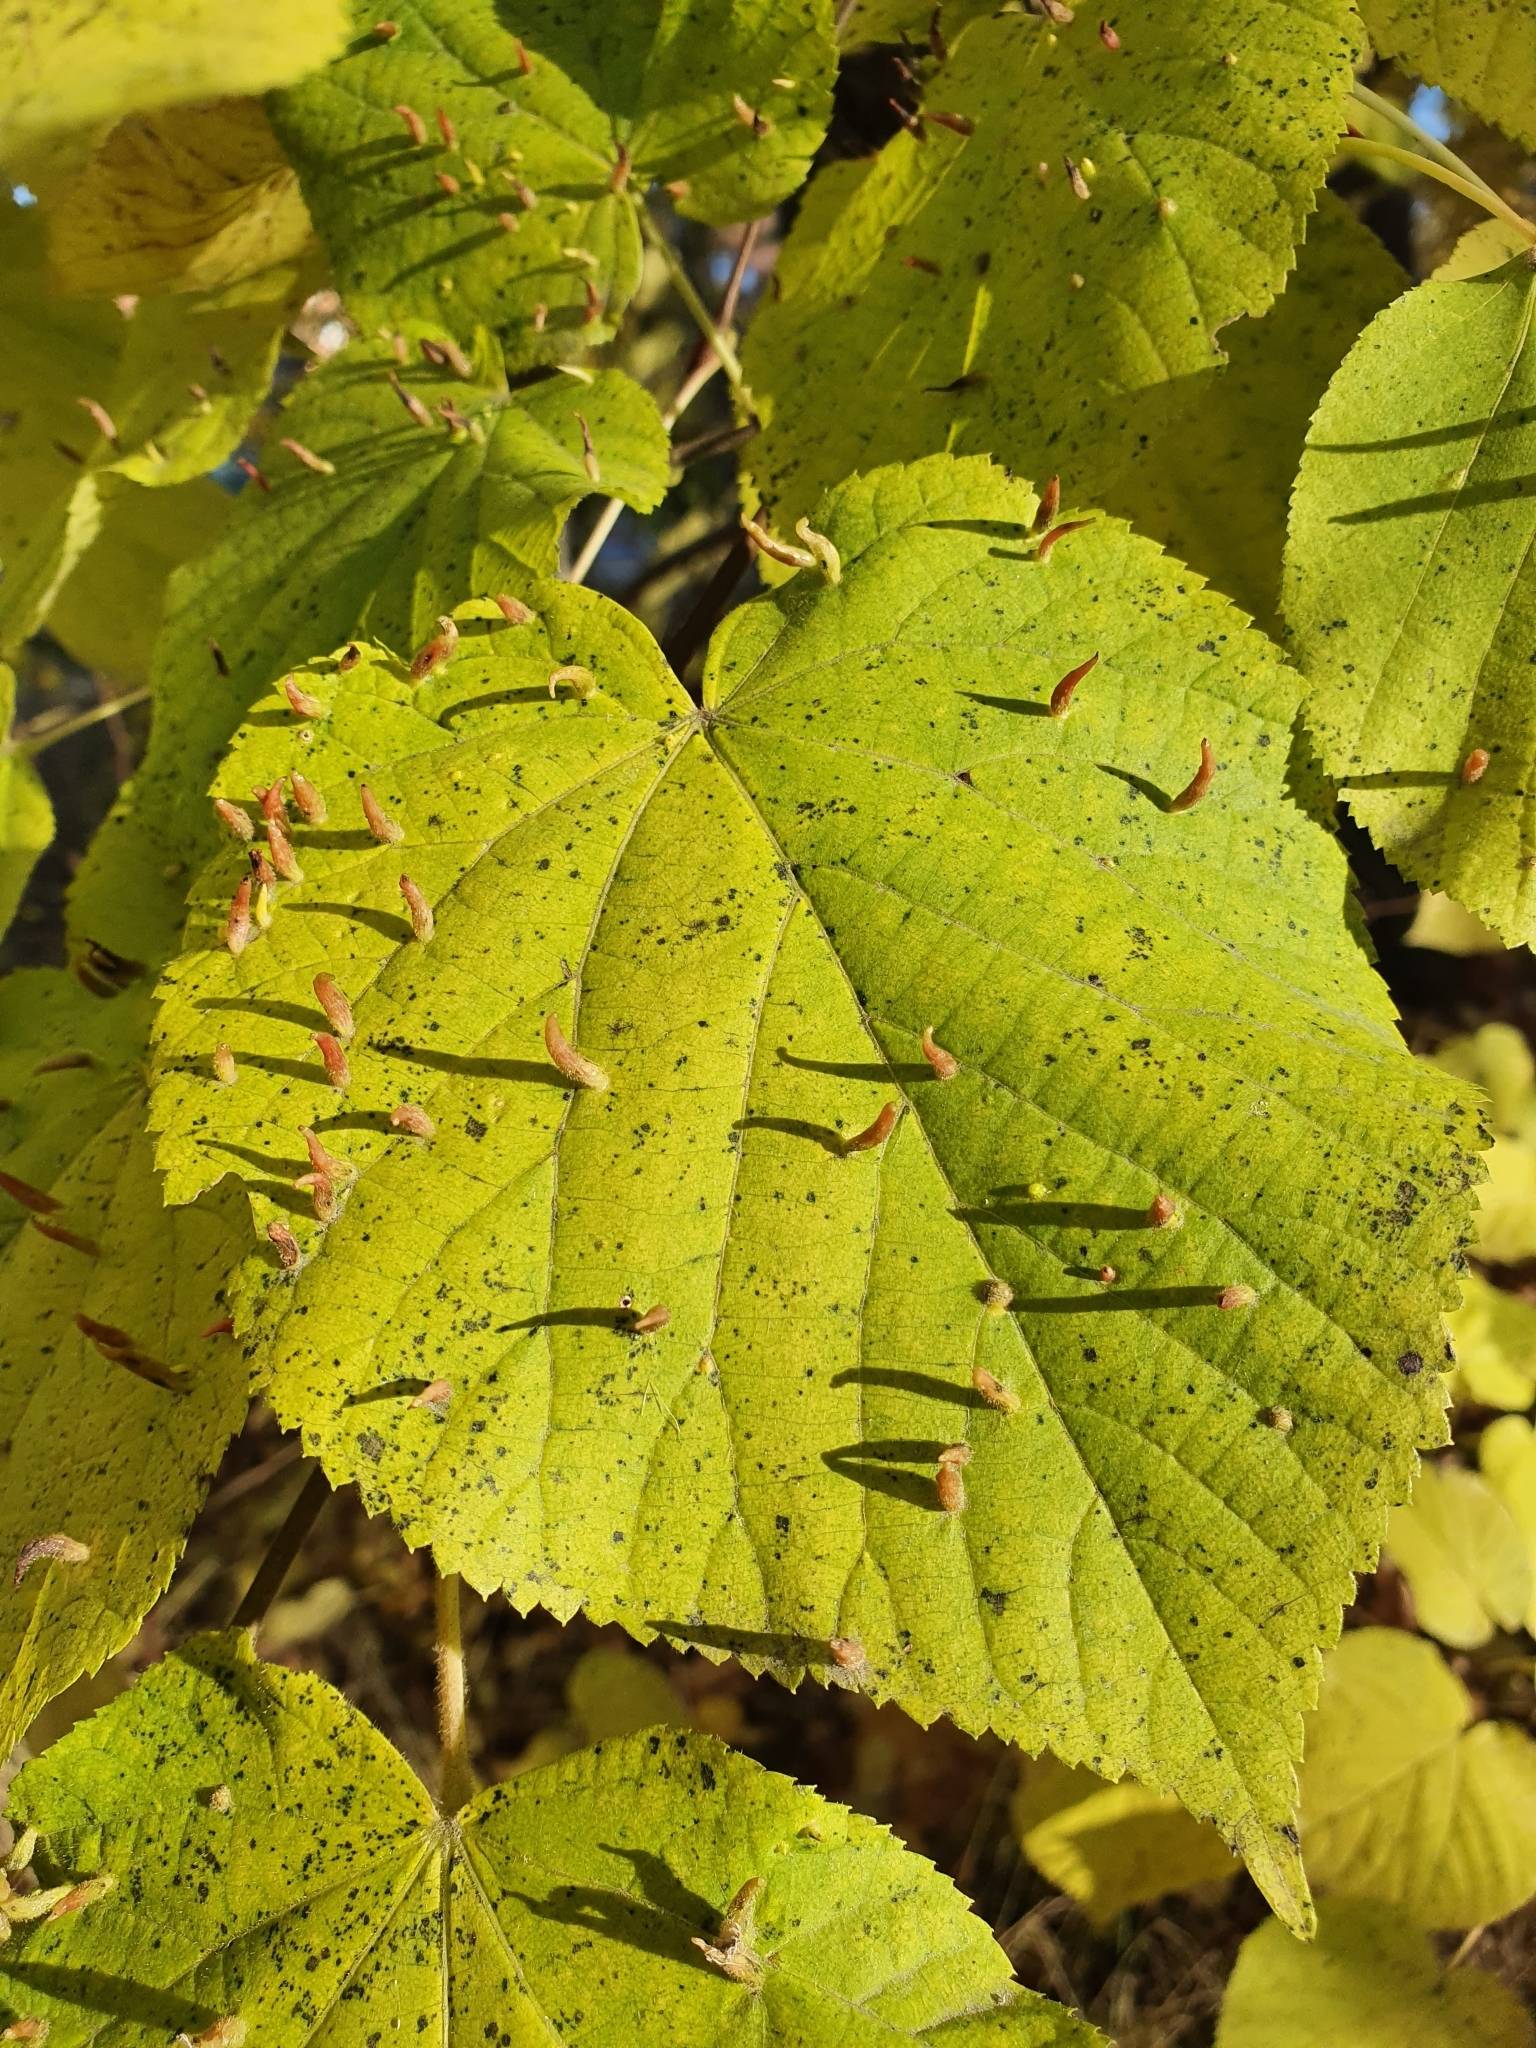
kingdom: Animalia
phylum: Arthropoda
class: Arachnida
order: Trombidiformes
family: Eriophyidae
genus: Eriophyes
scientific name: Eriophyes tiliae
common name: Red nail gall mite
